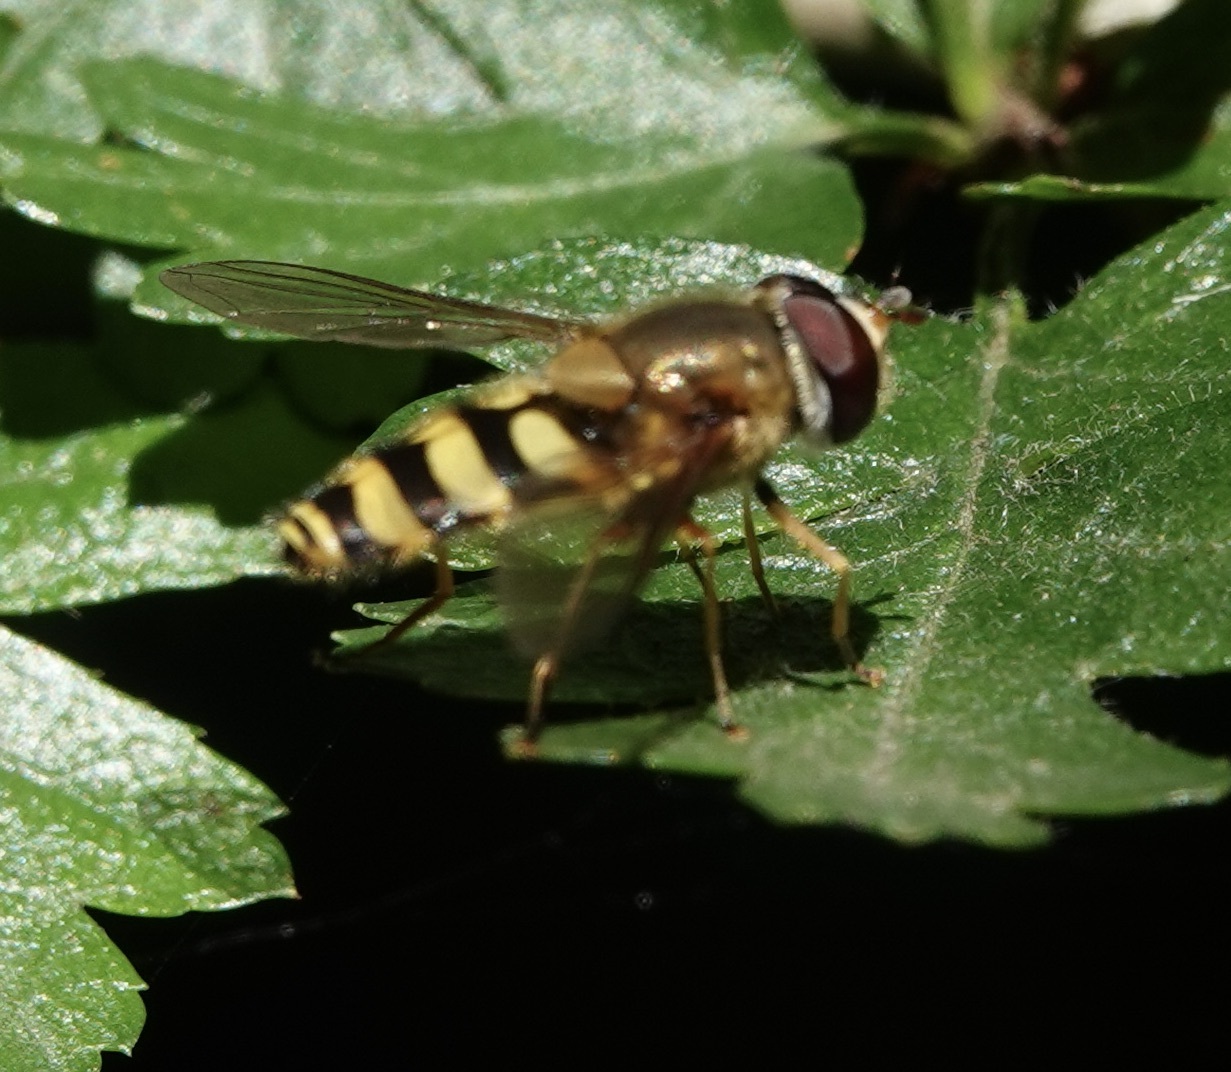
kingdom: Animalia
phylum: Arthropoda
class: Insecta
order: Diptera
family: Syrphidae
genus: Syrphus
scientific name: Syrphus
